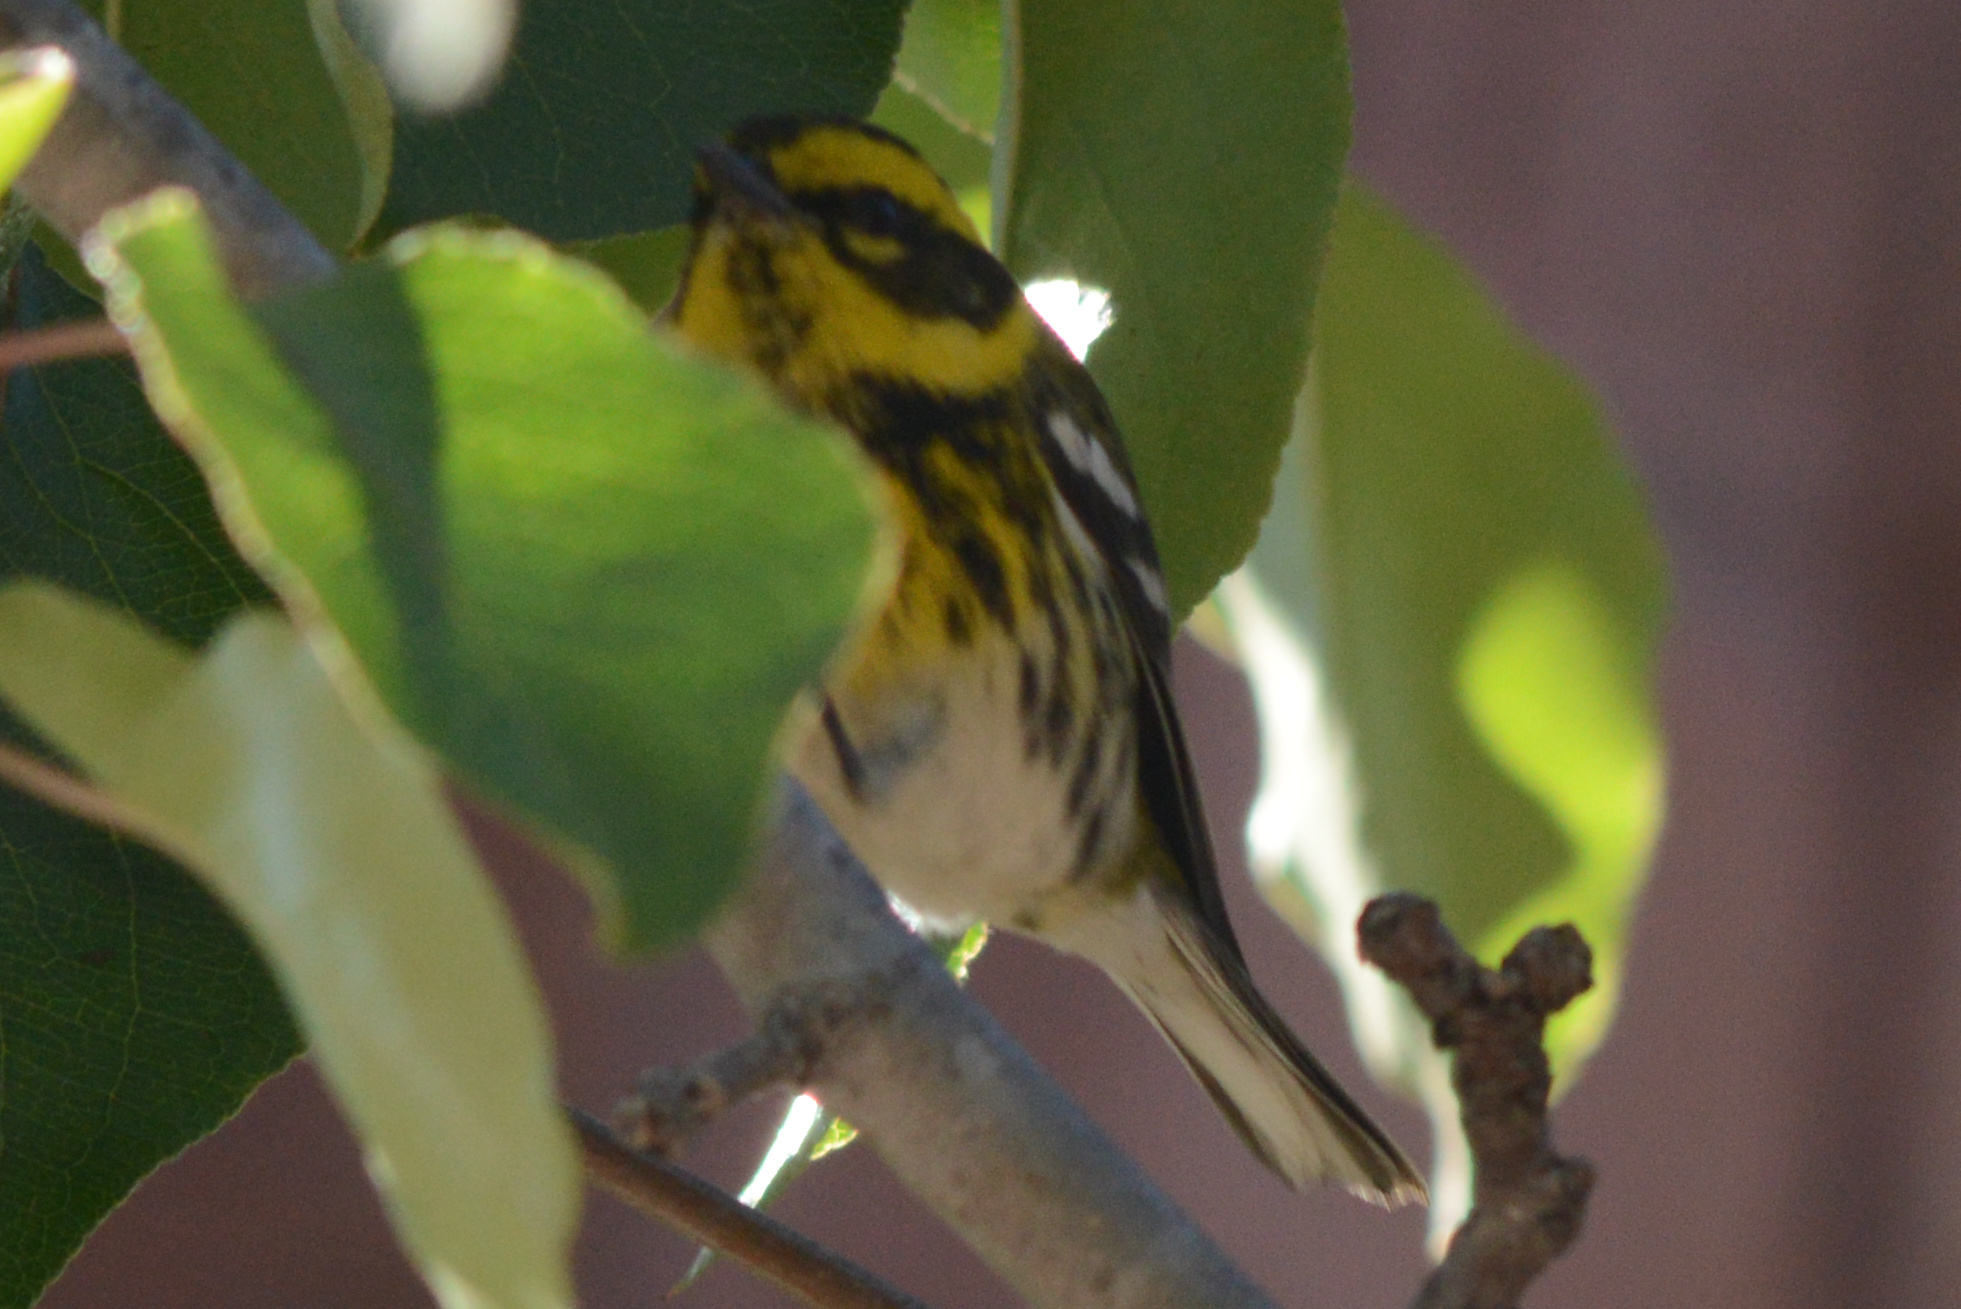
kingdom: Animalia
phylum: Chordata
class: Aves
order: Passeriformes
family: Parulidae
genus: Setophaga
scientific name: Setophaga townsendi
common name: Townsend's warbler
